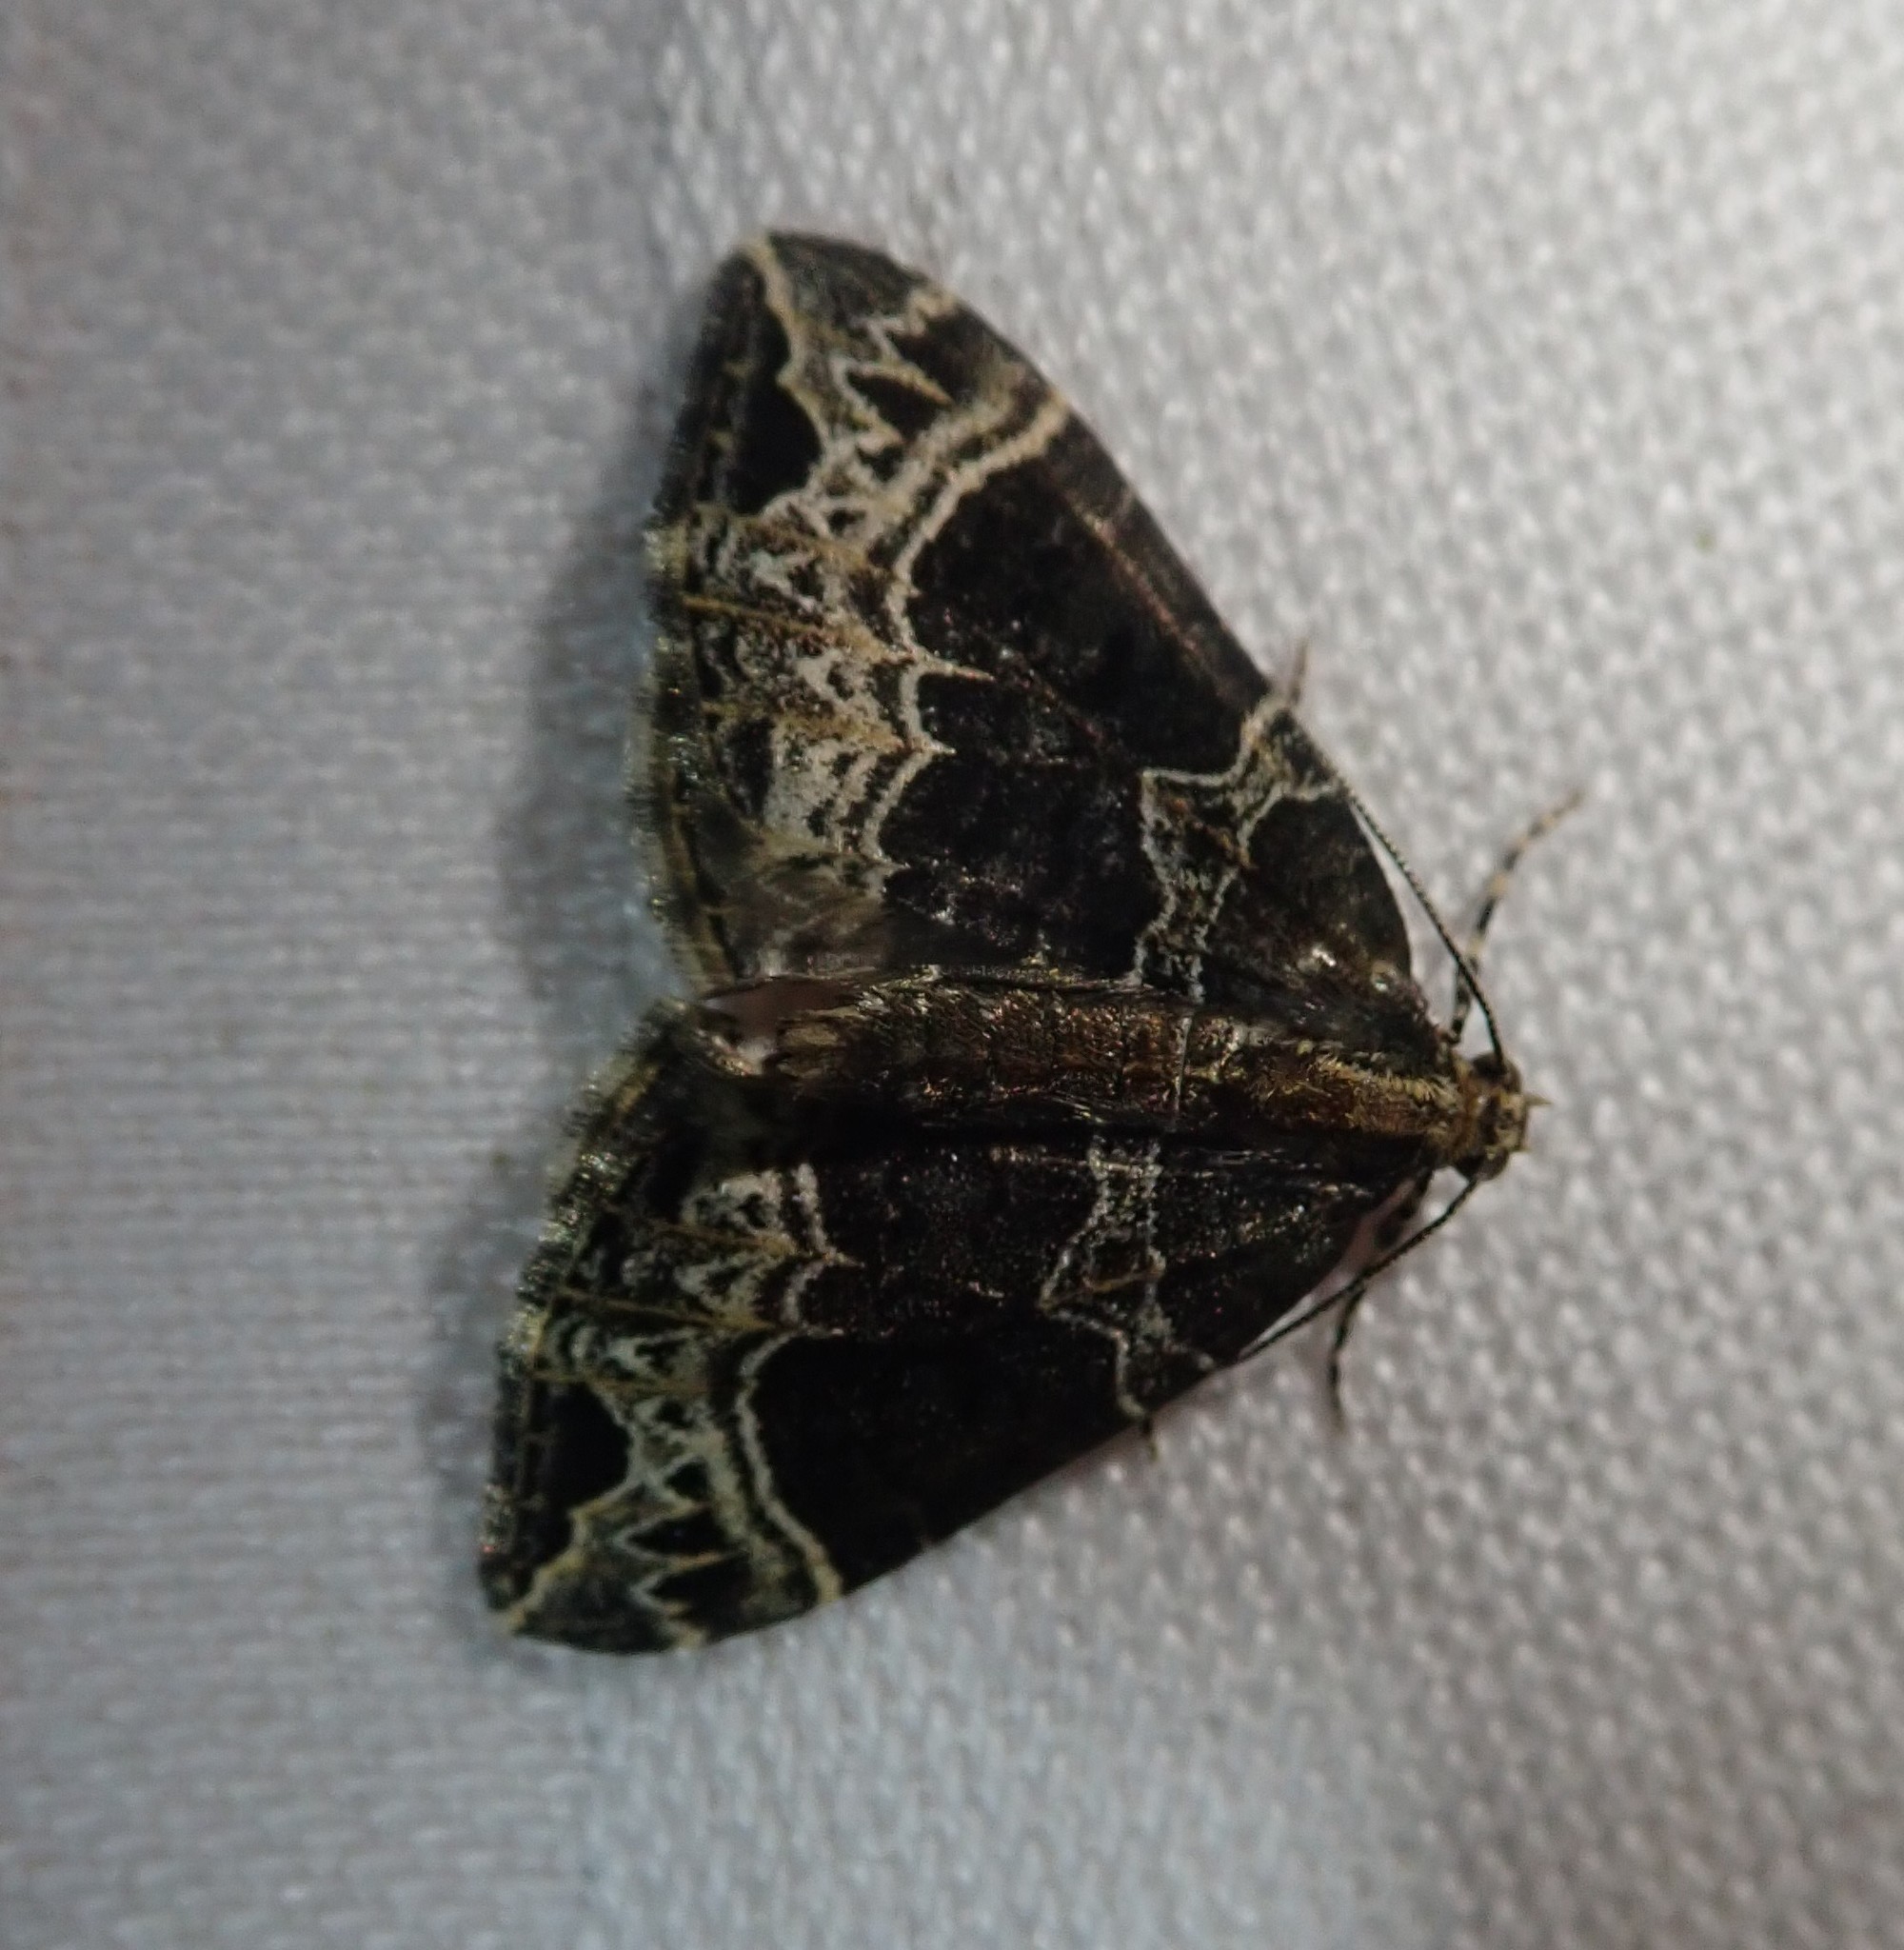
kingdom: Animalia
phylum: Arthropoda
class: Insecta
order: Lepidoptera
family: Geometridae
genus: Ecliptopera
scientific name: Ecliptopera silaceata
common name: Small phoenix
